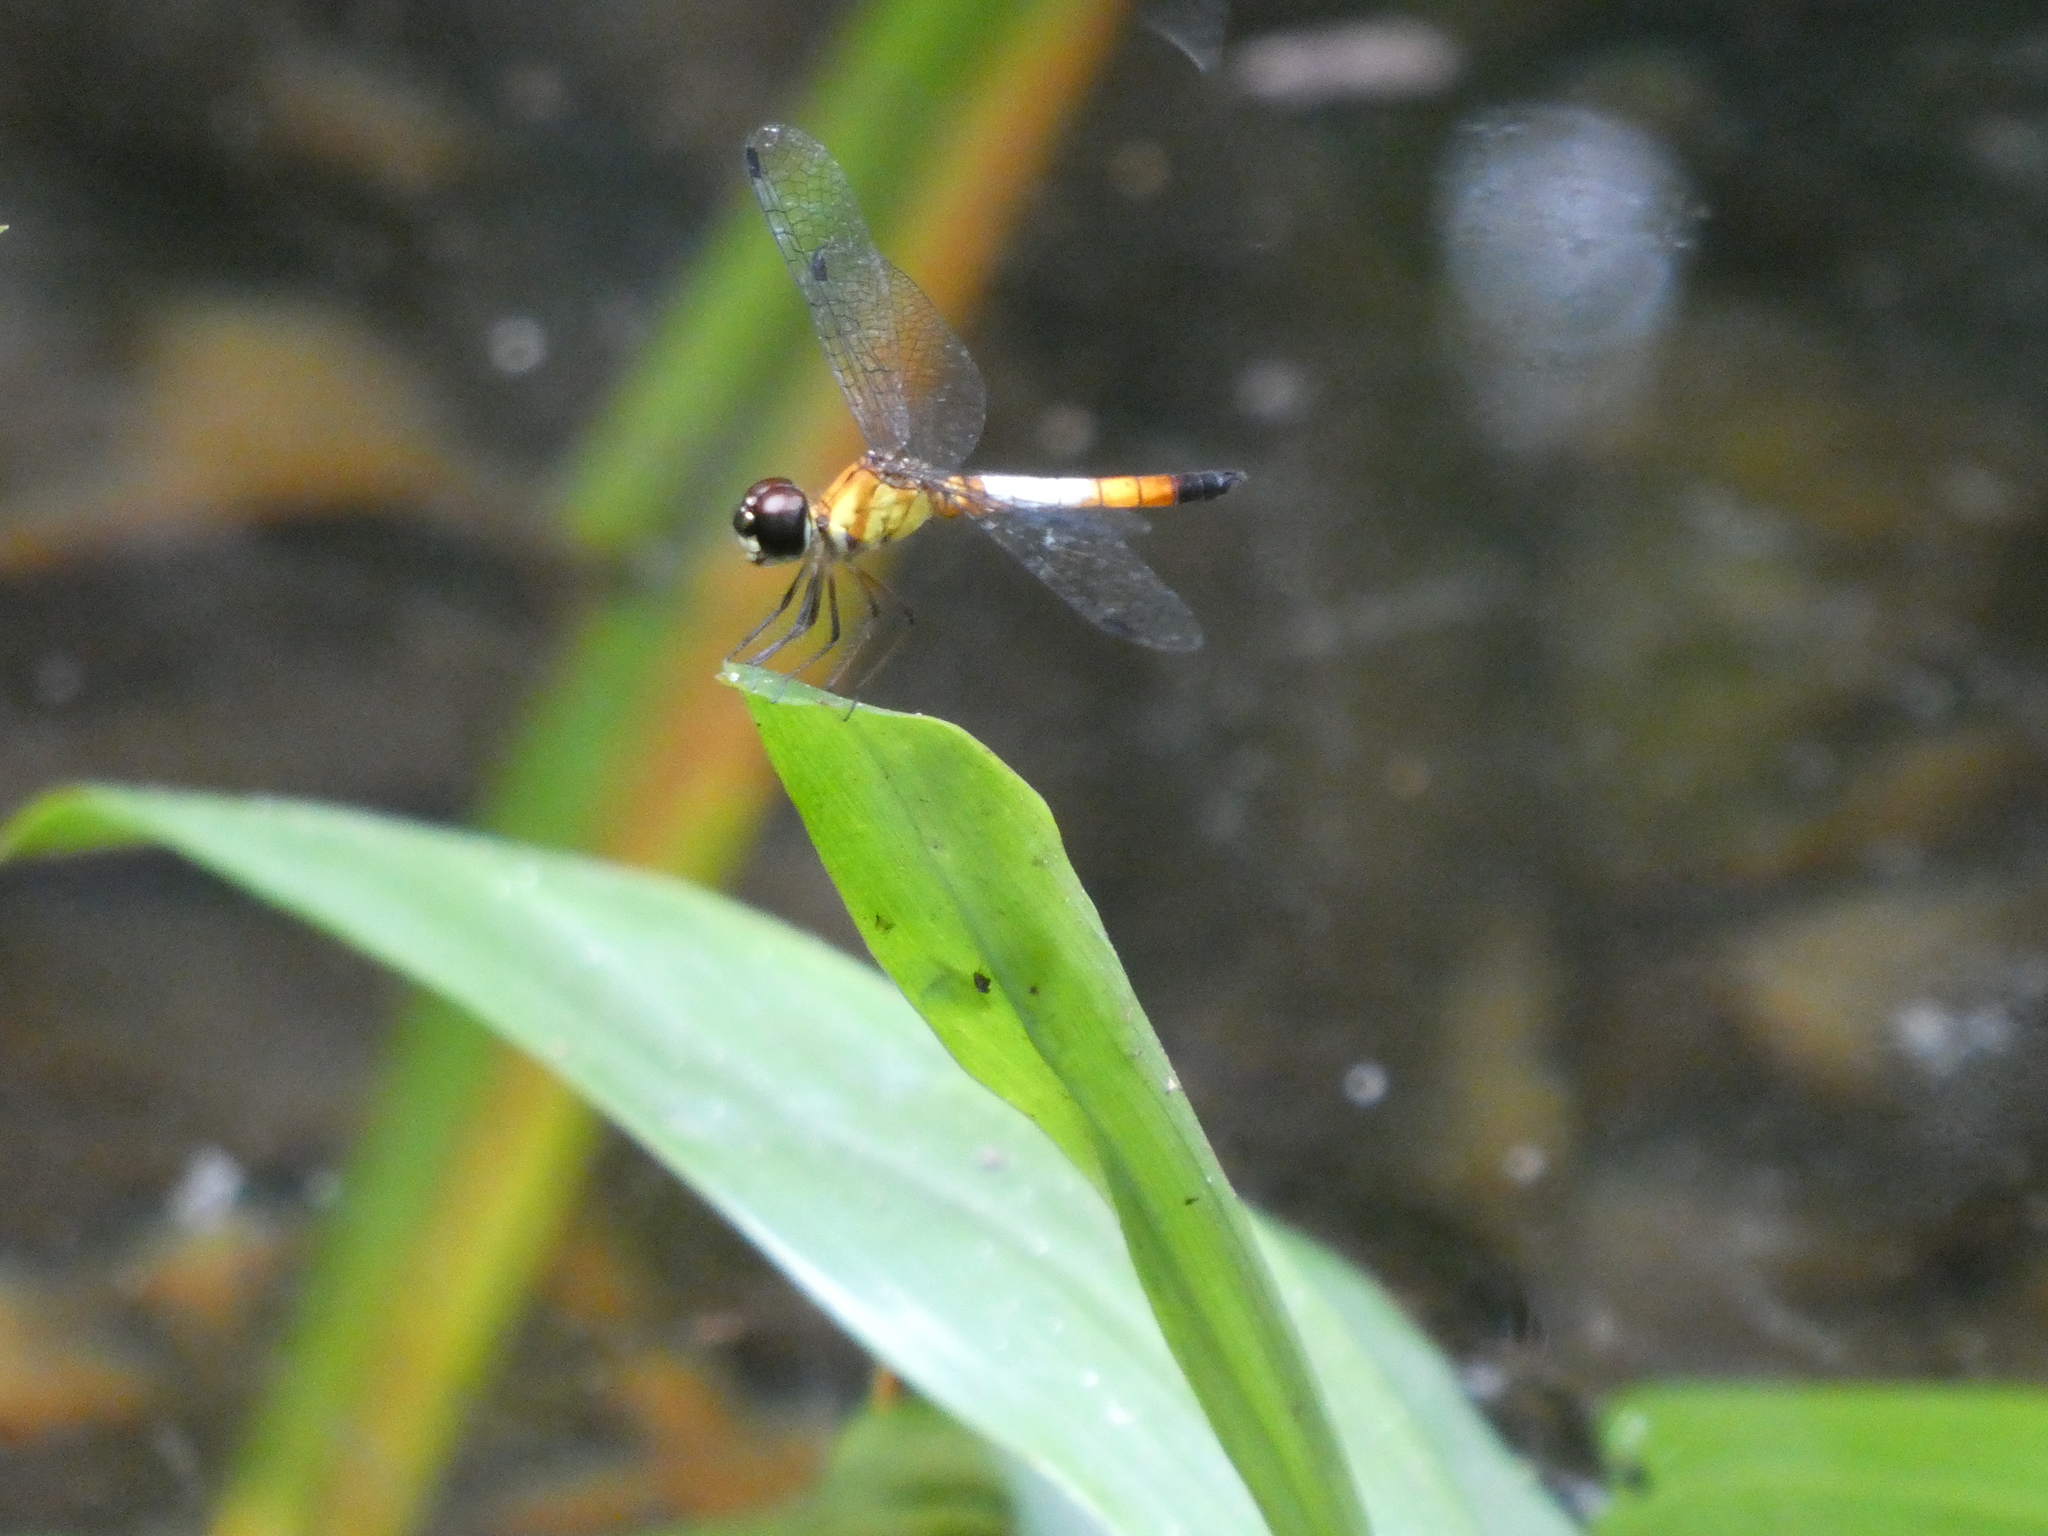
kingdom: Animalia
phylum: Arthropoda
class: Insecta
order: Odonata
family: Libellulidae
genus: Brachygonia
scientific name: Brachygonia oculata
